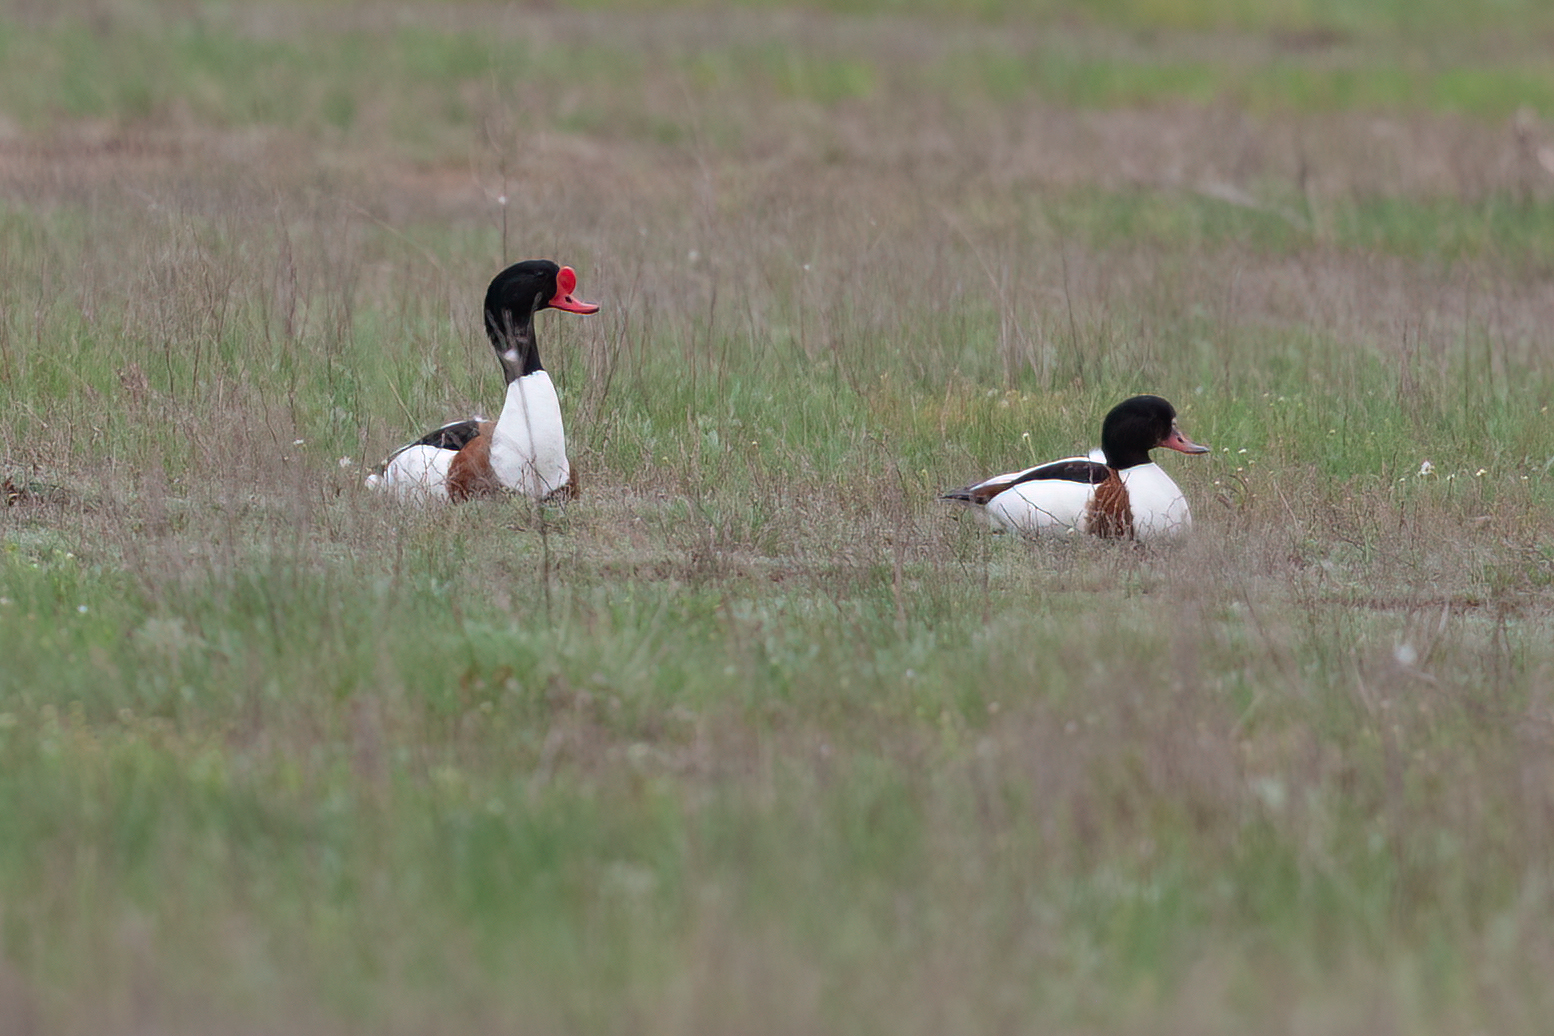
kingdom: Animalia
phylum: Chordata
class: Aves
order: Anseriformes
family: Anatidae
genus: Tadorna
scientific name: Tadorna tadorna
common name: Common shelduck
